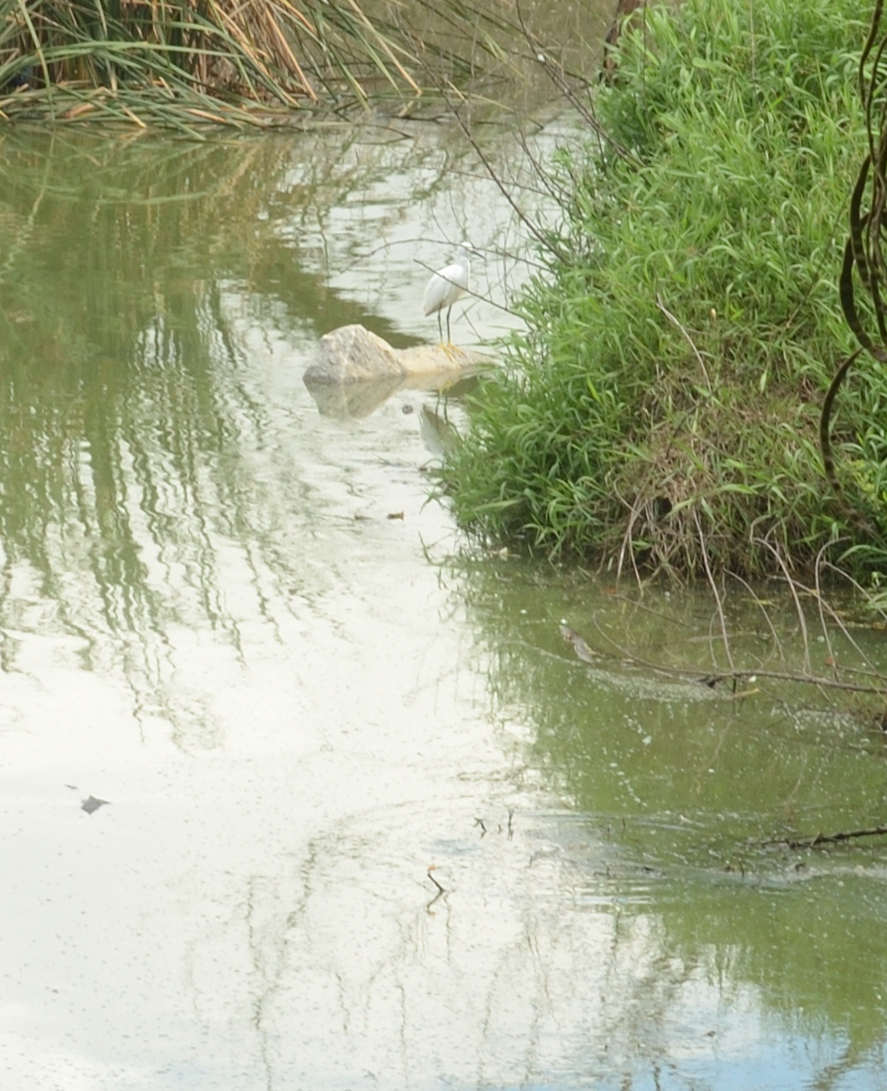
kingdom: Animalia
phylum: Chordata
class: Aves
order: Pelecaniformes
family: Ardeidae
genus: Egretta
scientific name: Egretta garzetta
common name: Little egret
